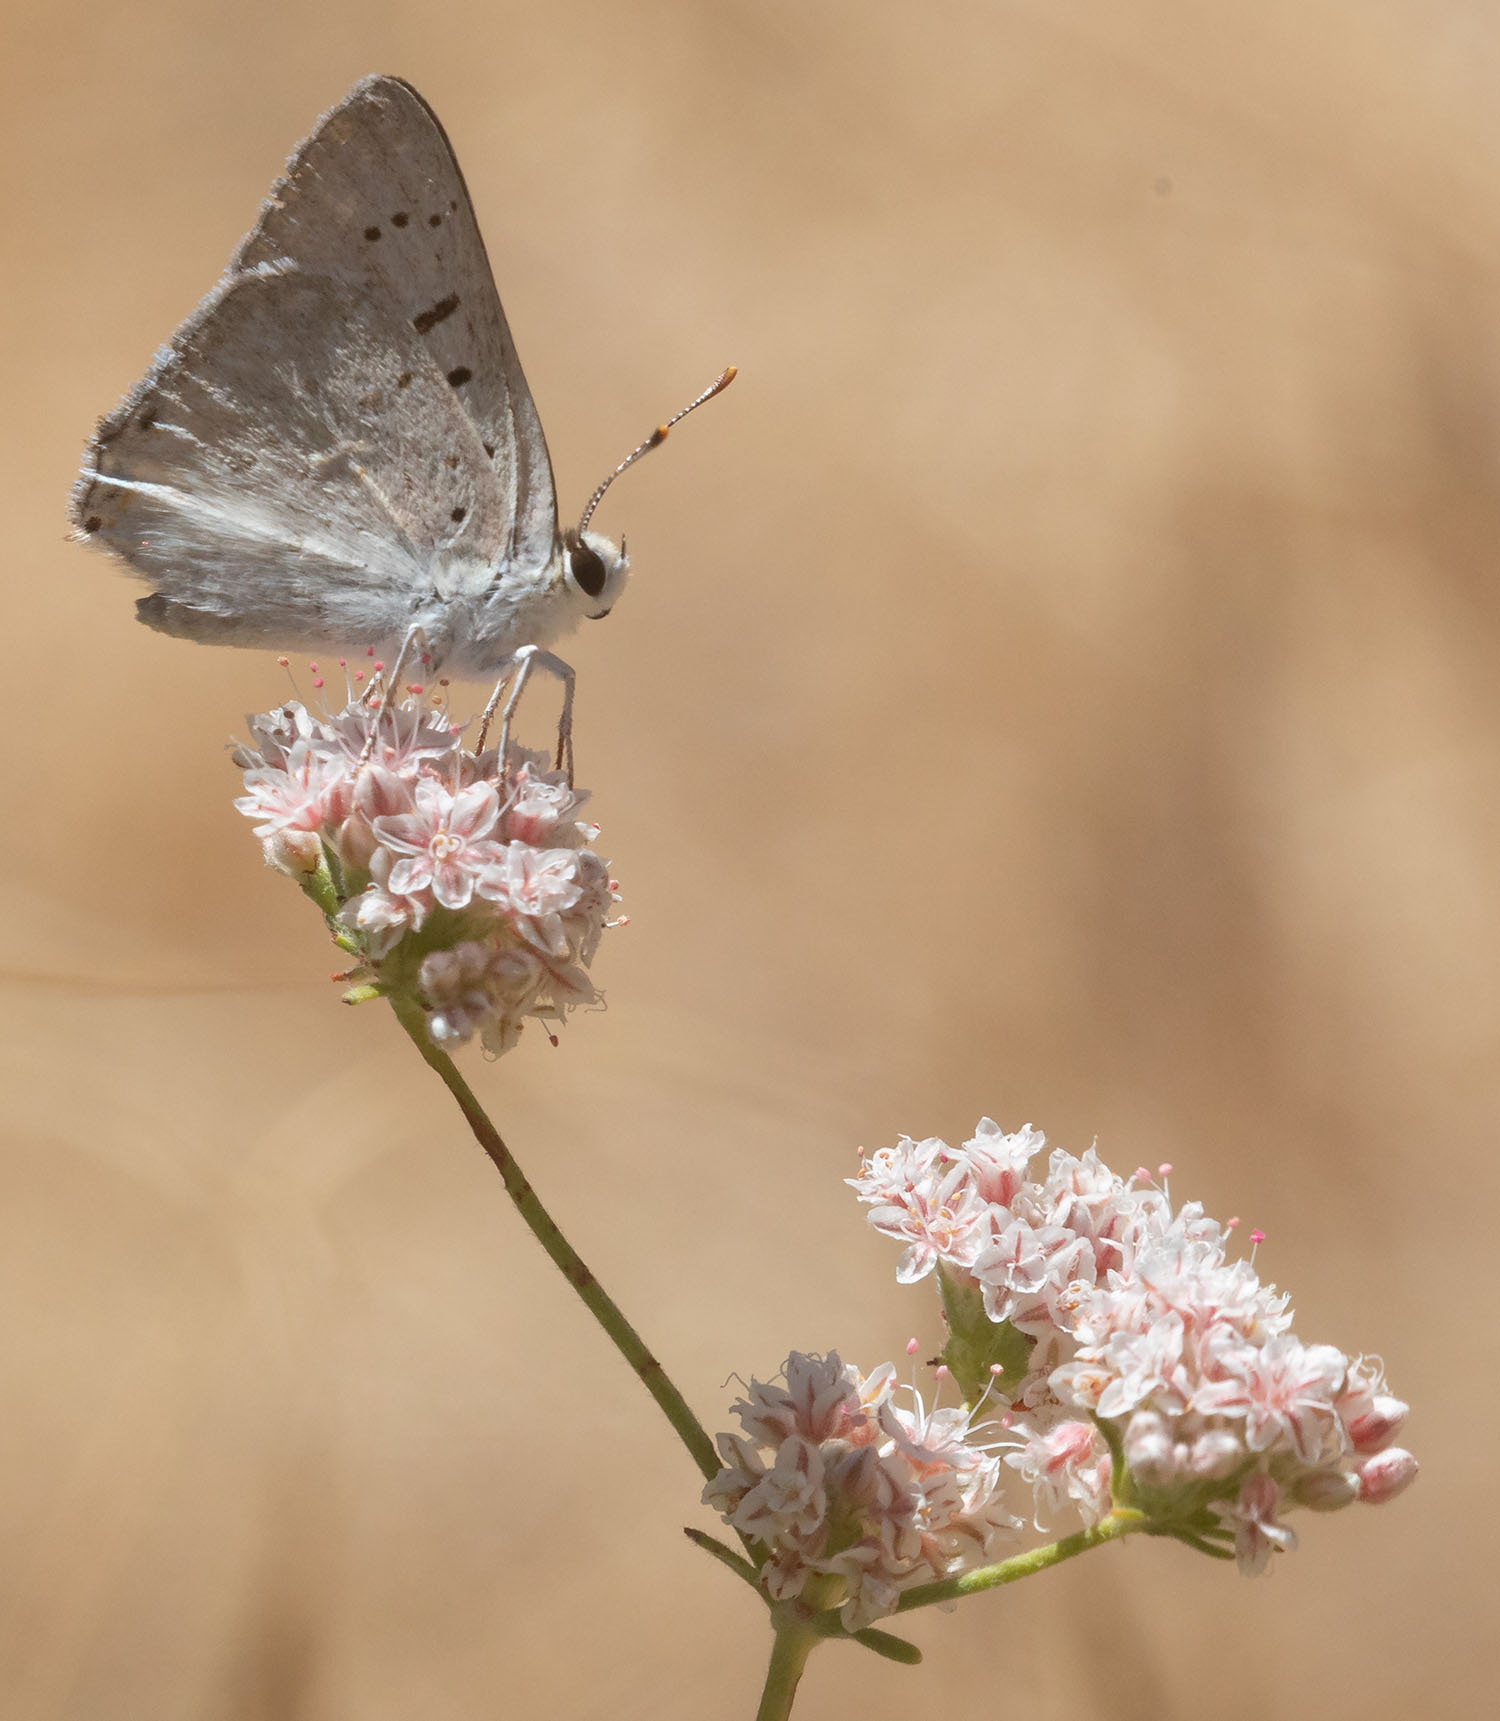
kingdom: Animalia
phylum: Arthropoda
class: Insecta
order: Lepidoptera
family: Lycaenidae
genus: Tharsalea
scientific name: Tharsalea xanthoides
